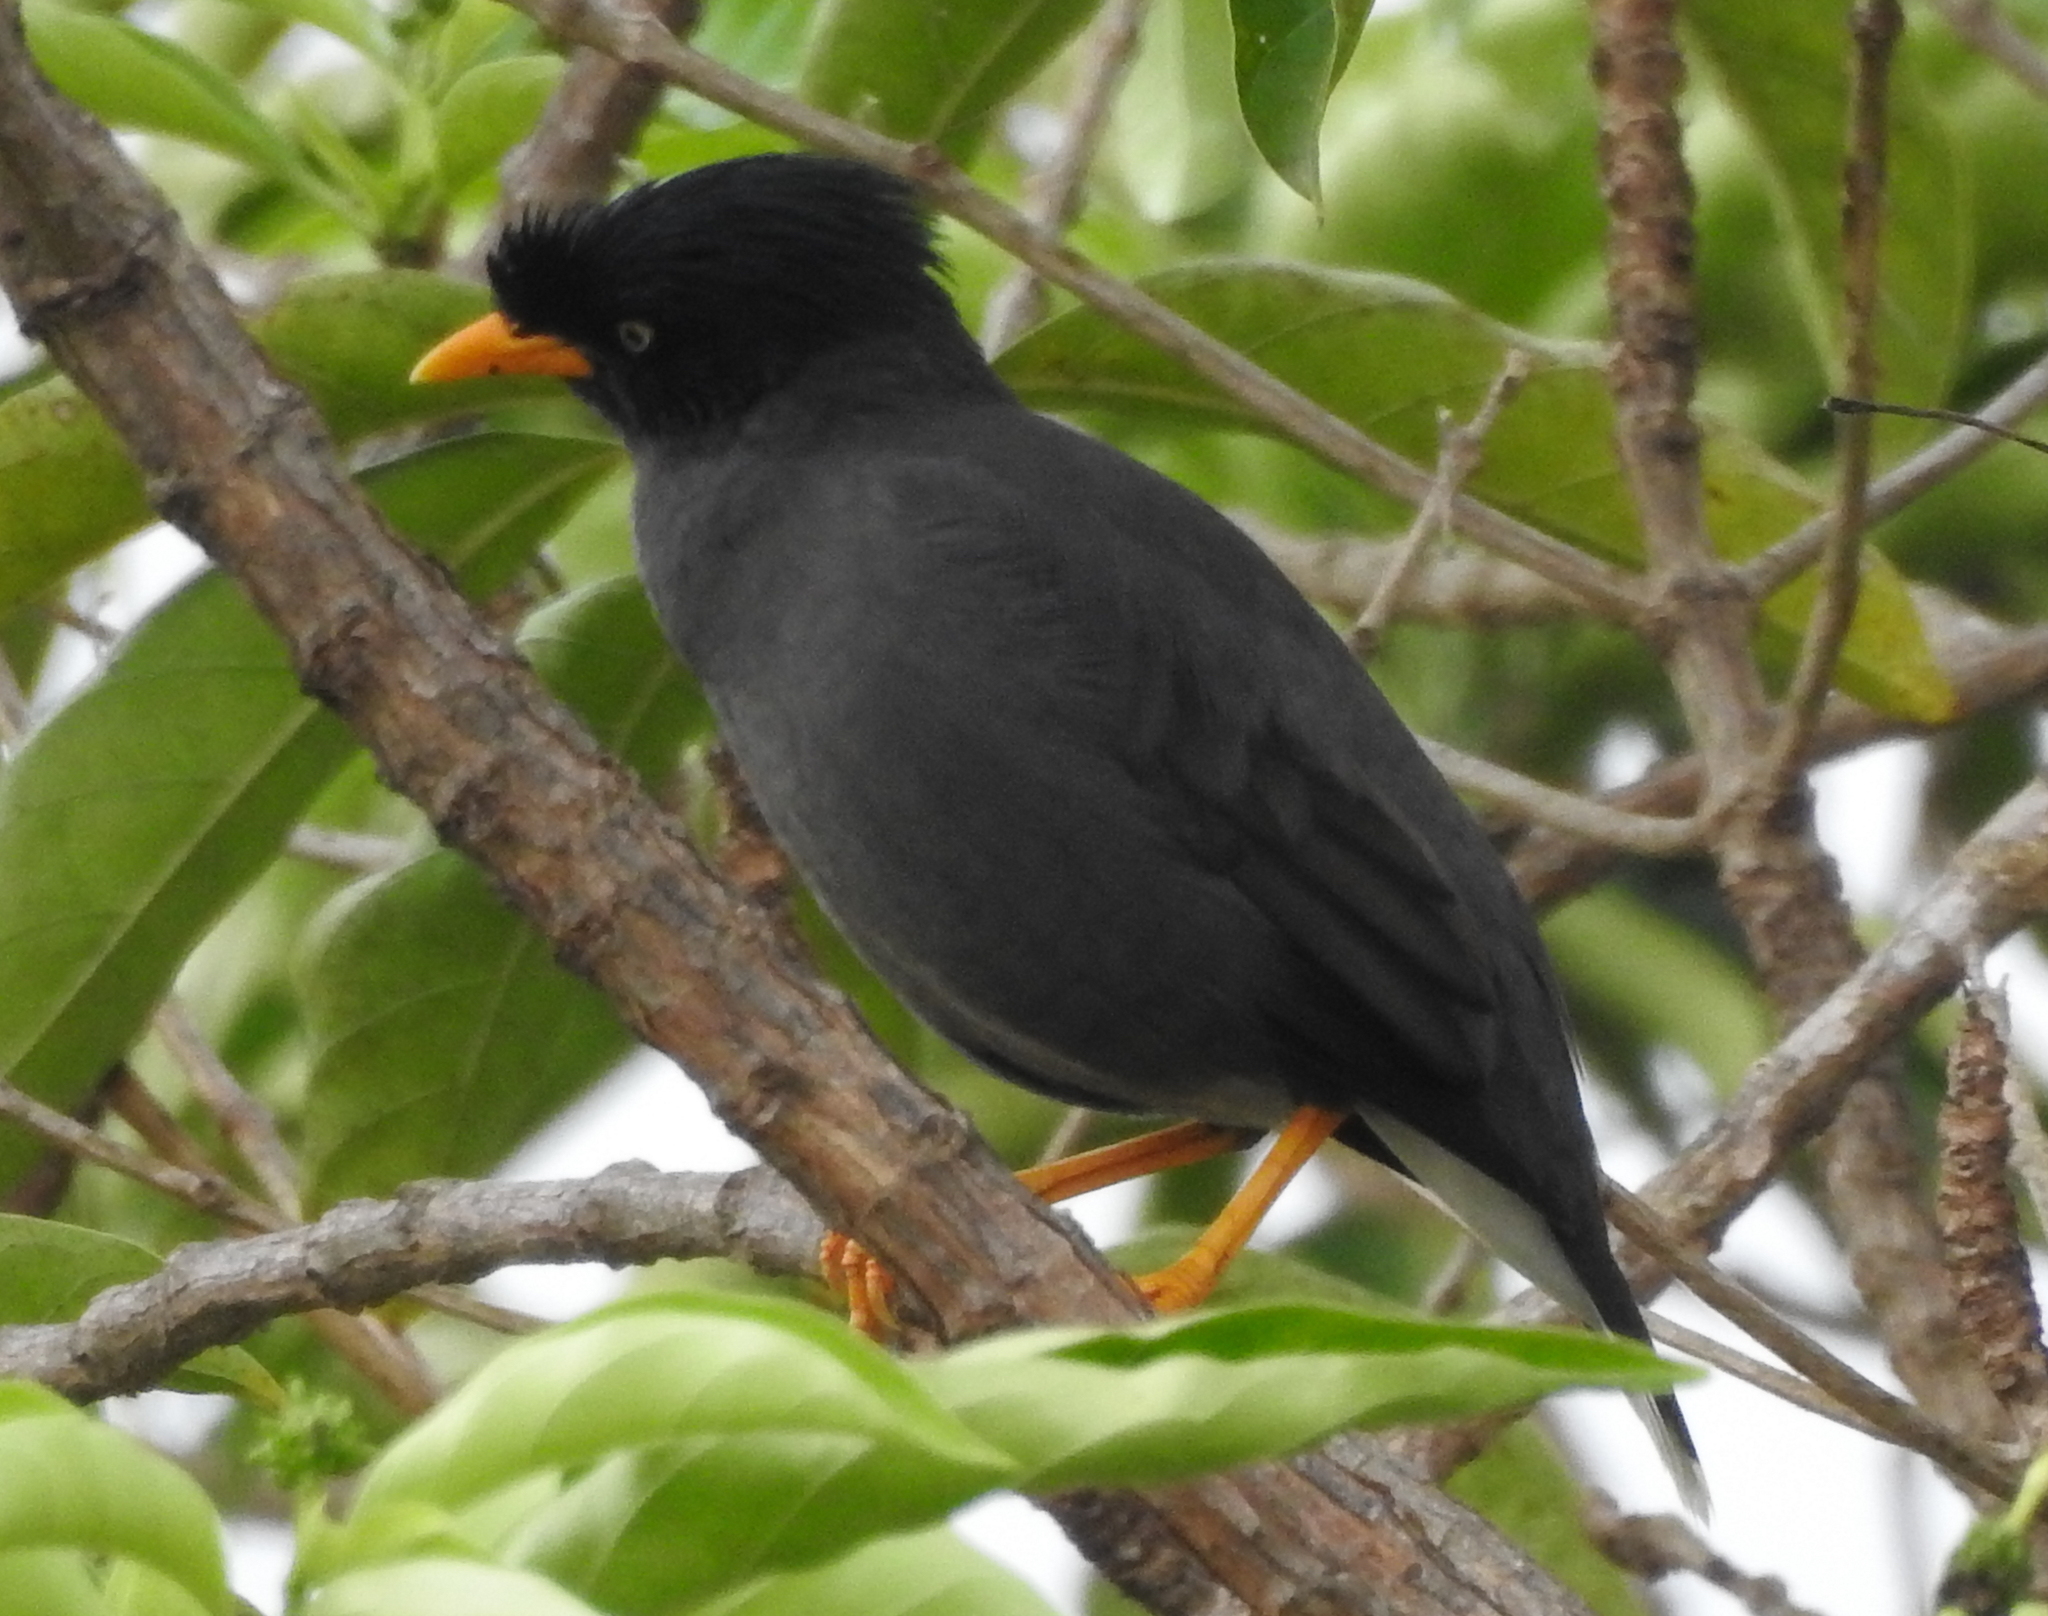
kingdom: Animalia
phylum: Chordata
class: Aves
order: Passeriformes
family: Sturnidae
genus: Acridotheres
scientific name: Acridotheres javanicus
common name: Javan myna
